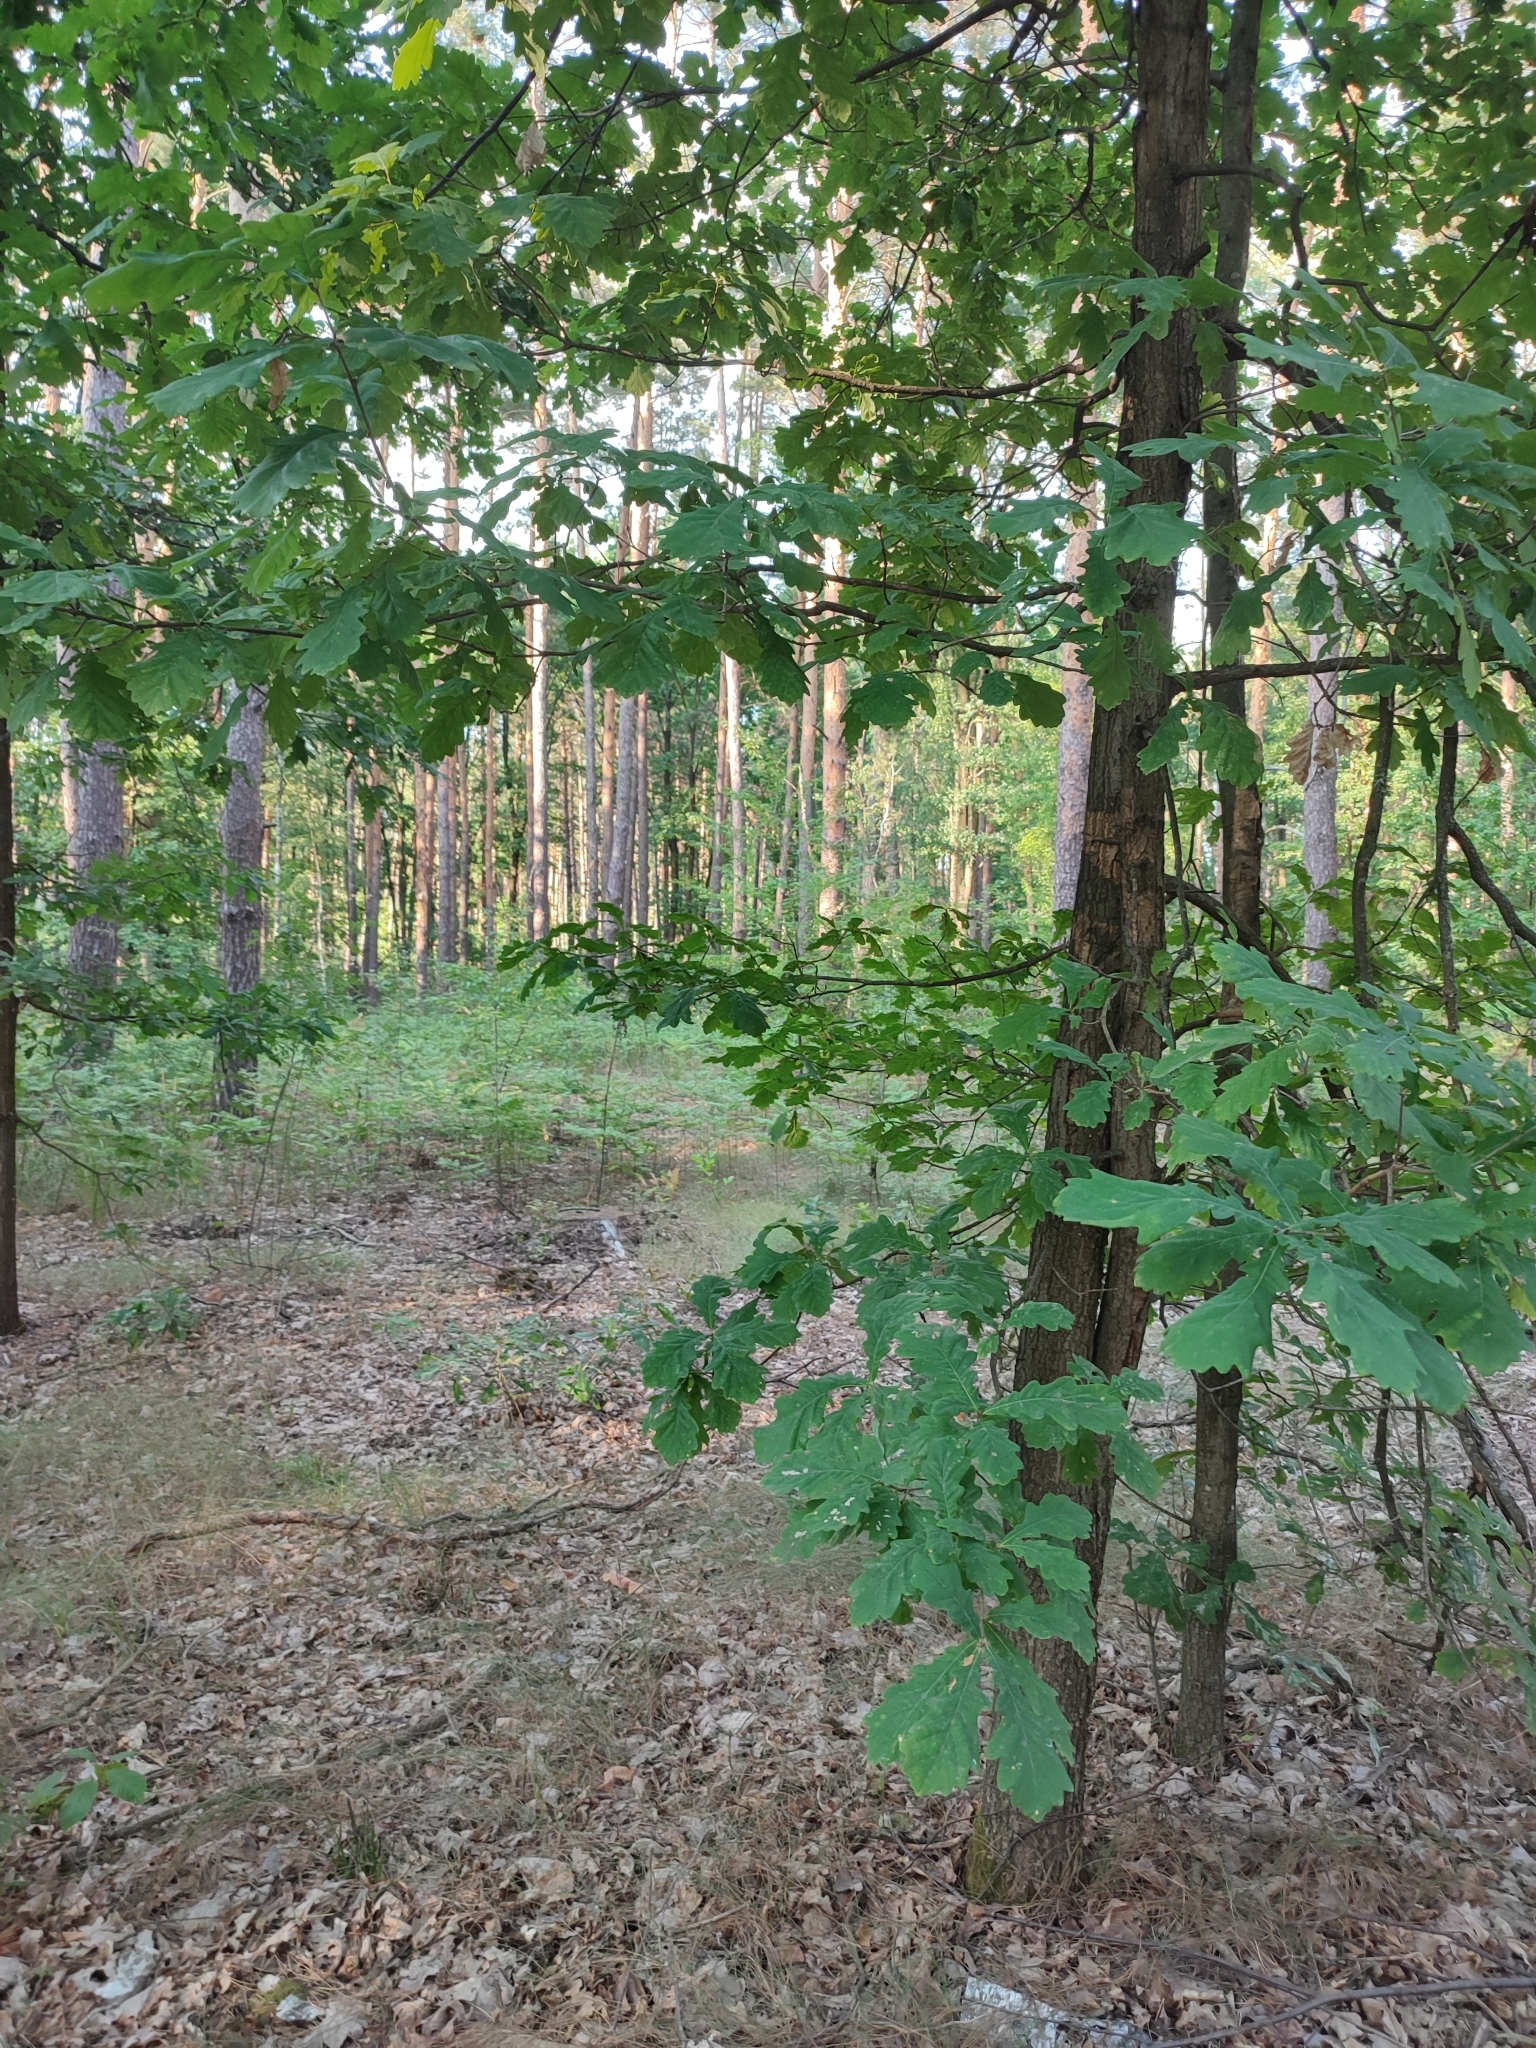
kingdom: Plantae
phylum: Tracheophyta
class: Magnoliopsida
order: Fagales
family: Fagaceae
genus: Quercus
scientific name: Quercus robur
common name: Pedunculate oak
